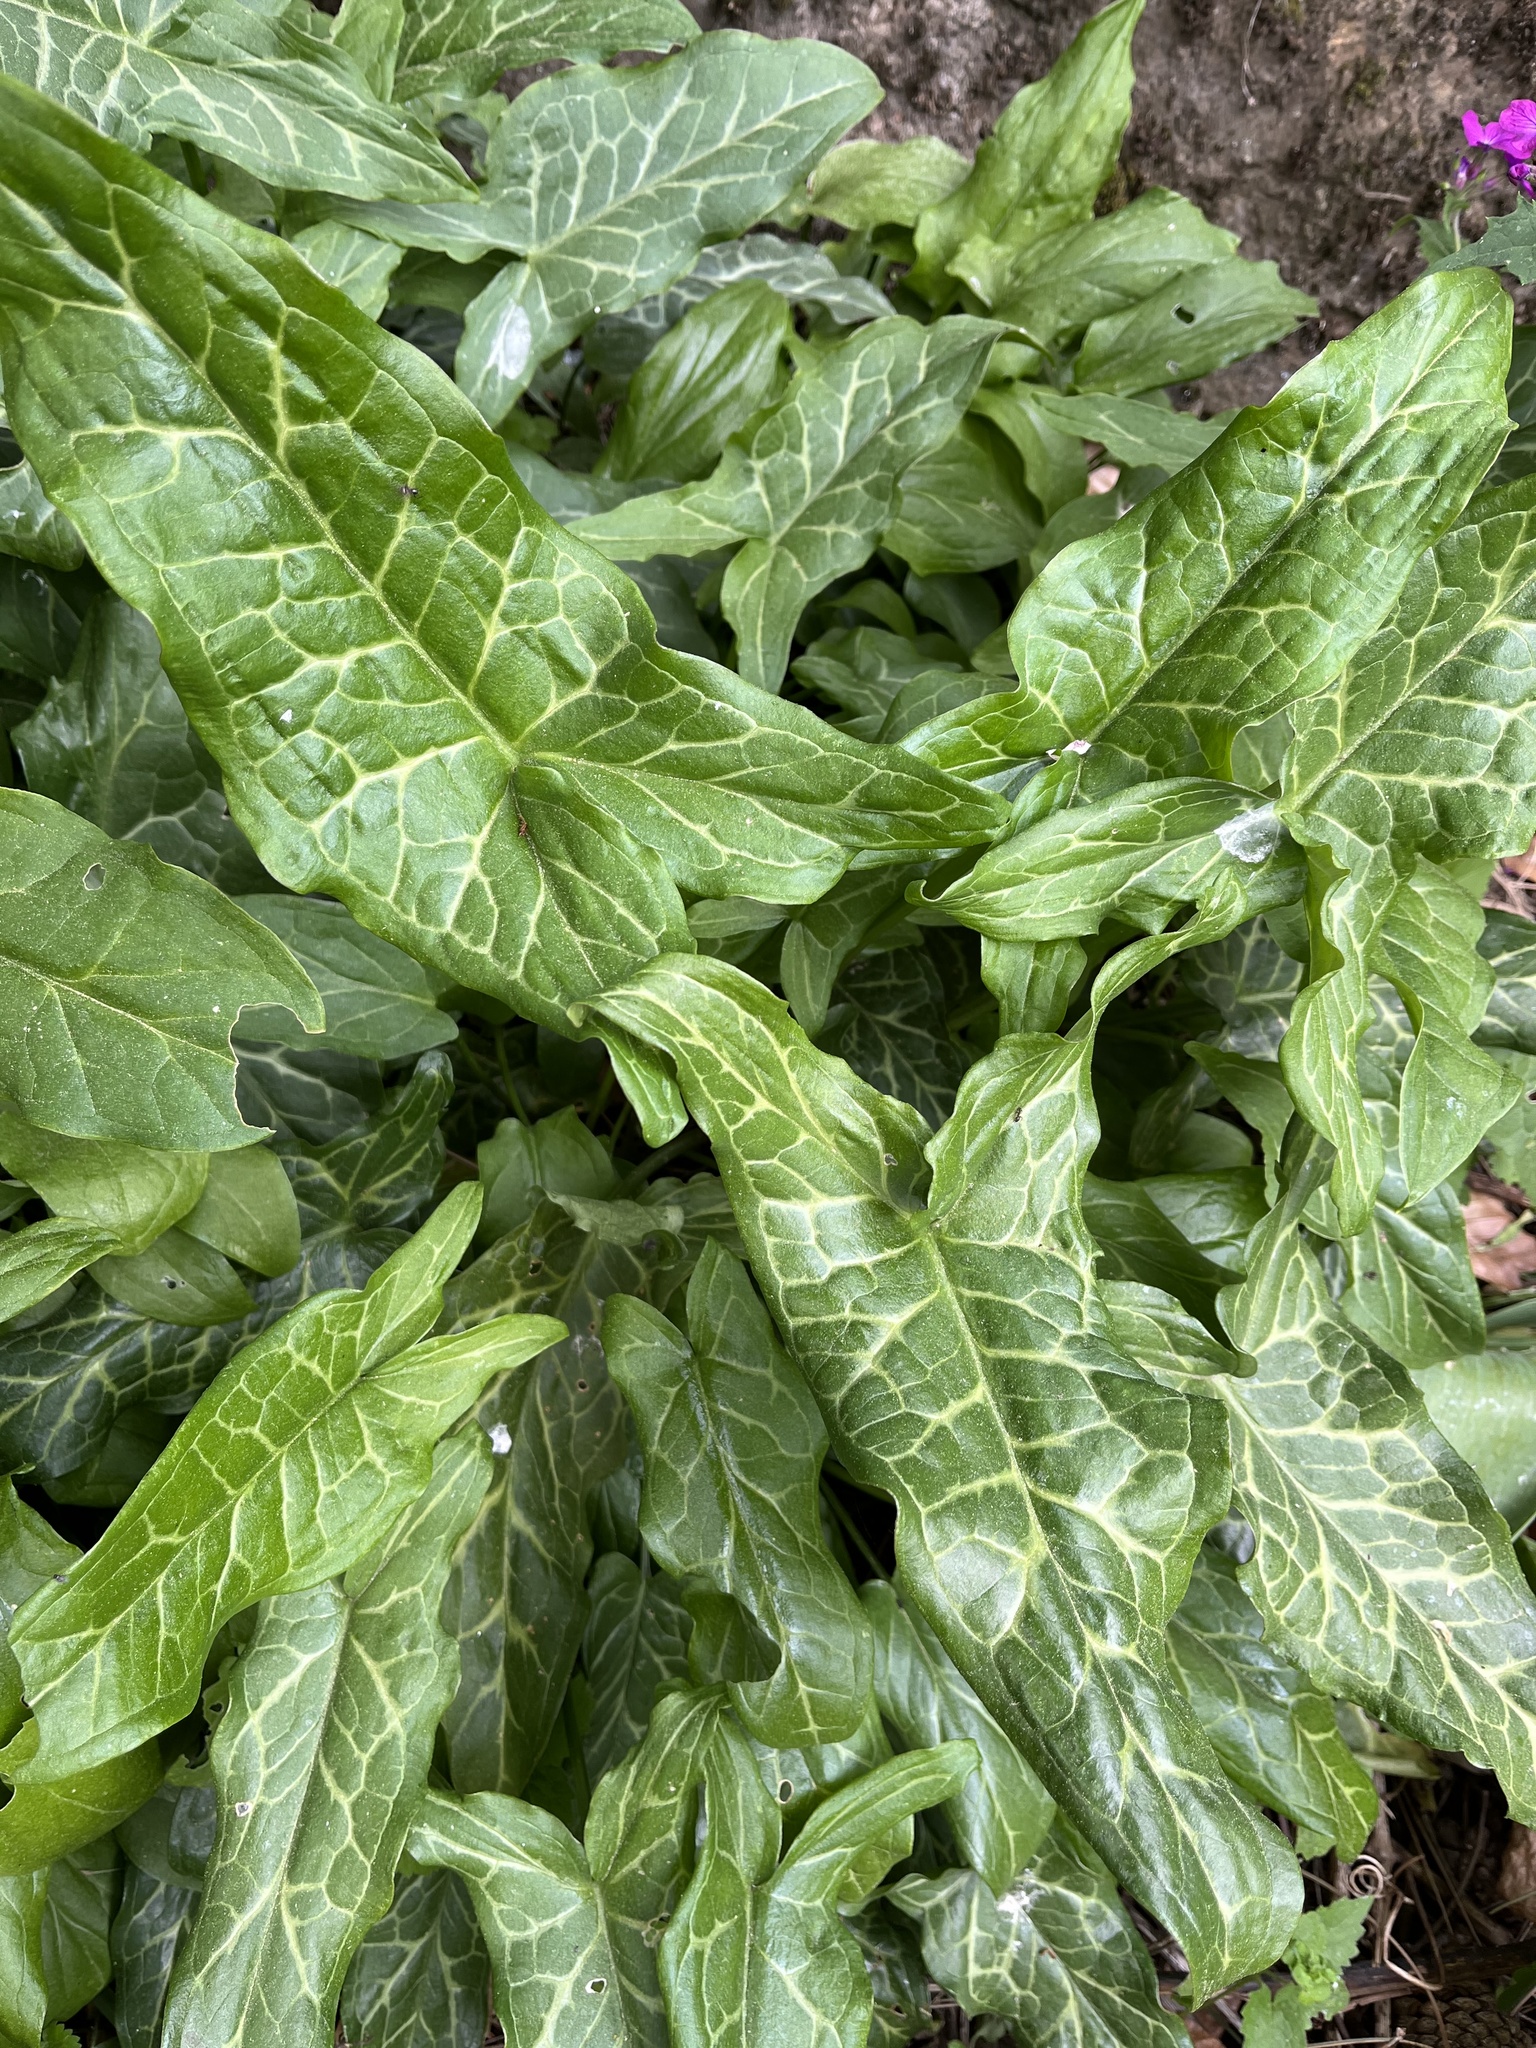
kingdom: Plantae
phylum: Tracheophyta
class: Liliopsida
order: Alismatales
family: Araceae
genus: Arum
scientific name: Arum italicum
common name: Italian lords-and-ladies
